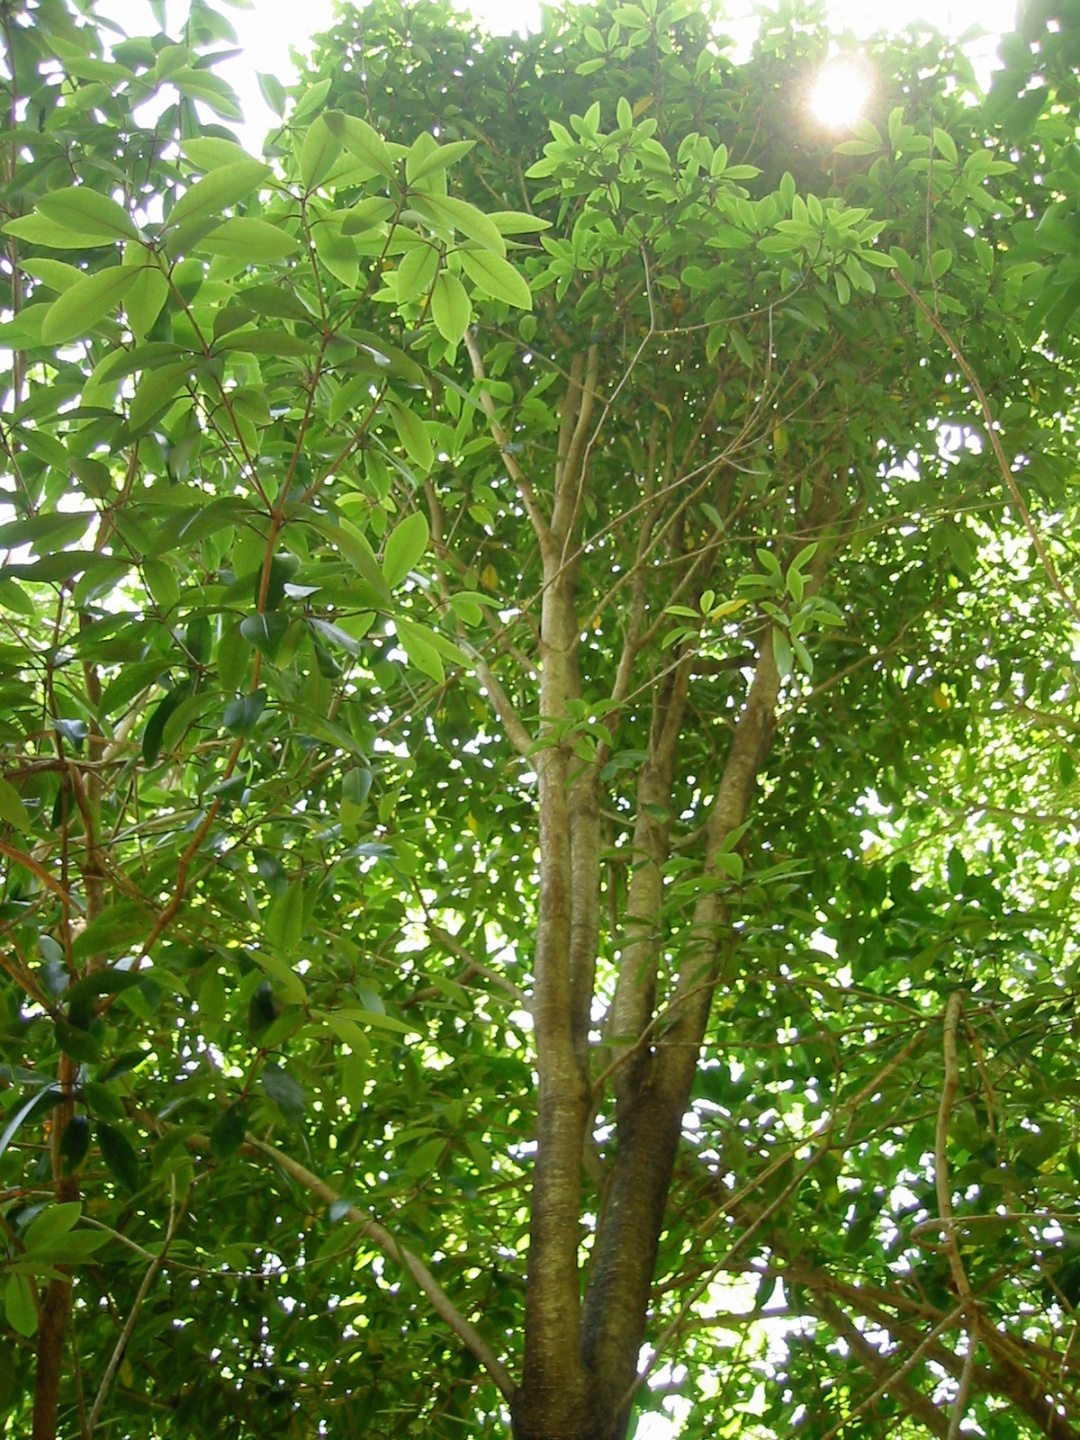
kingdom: Plantae
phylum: Tracheophyta
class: Magnoliopsida
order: Apiales
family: Pittosporaceae
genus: Pittosporum
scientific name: Pittosporum umbellatum
